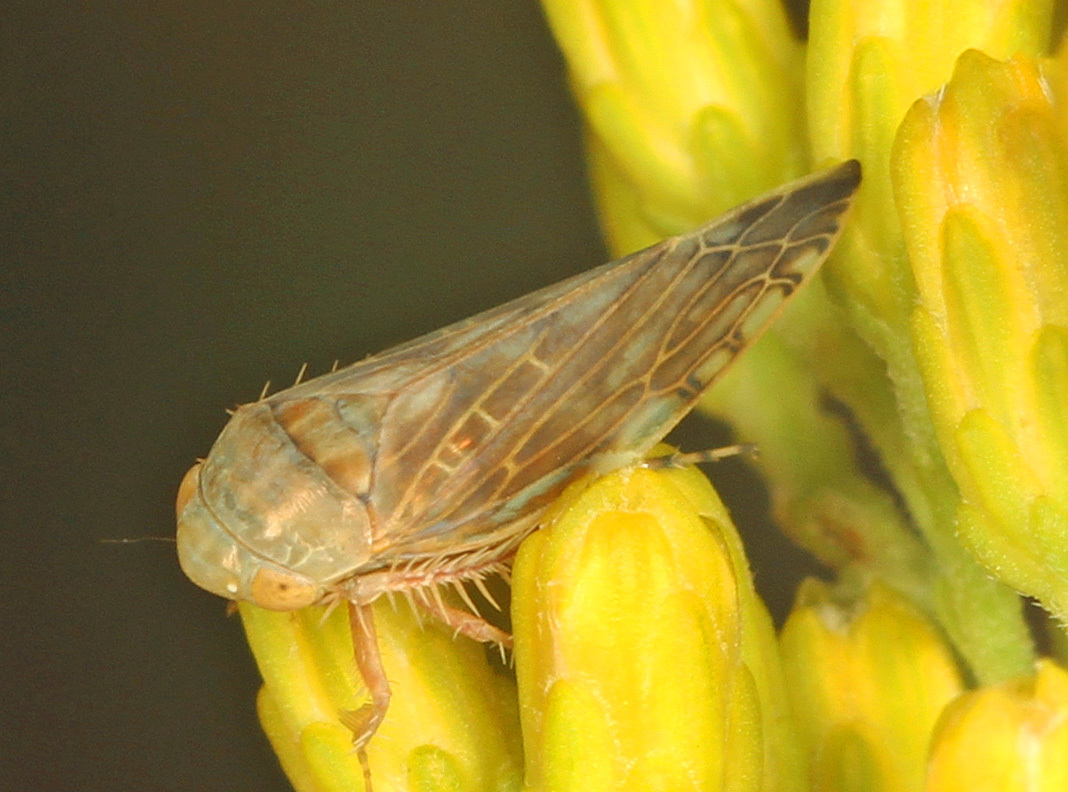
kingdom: Animalia
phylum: Arthropoda
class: Insecta
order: Hemiptera
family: Cicadellidae
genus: Acinopterus
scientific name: Acinopterus acuminatus
